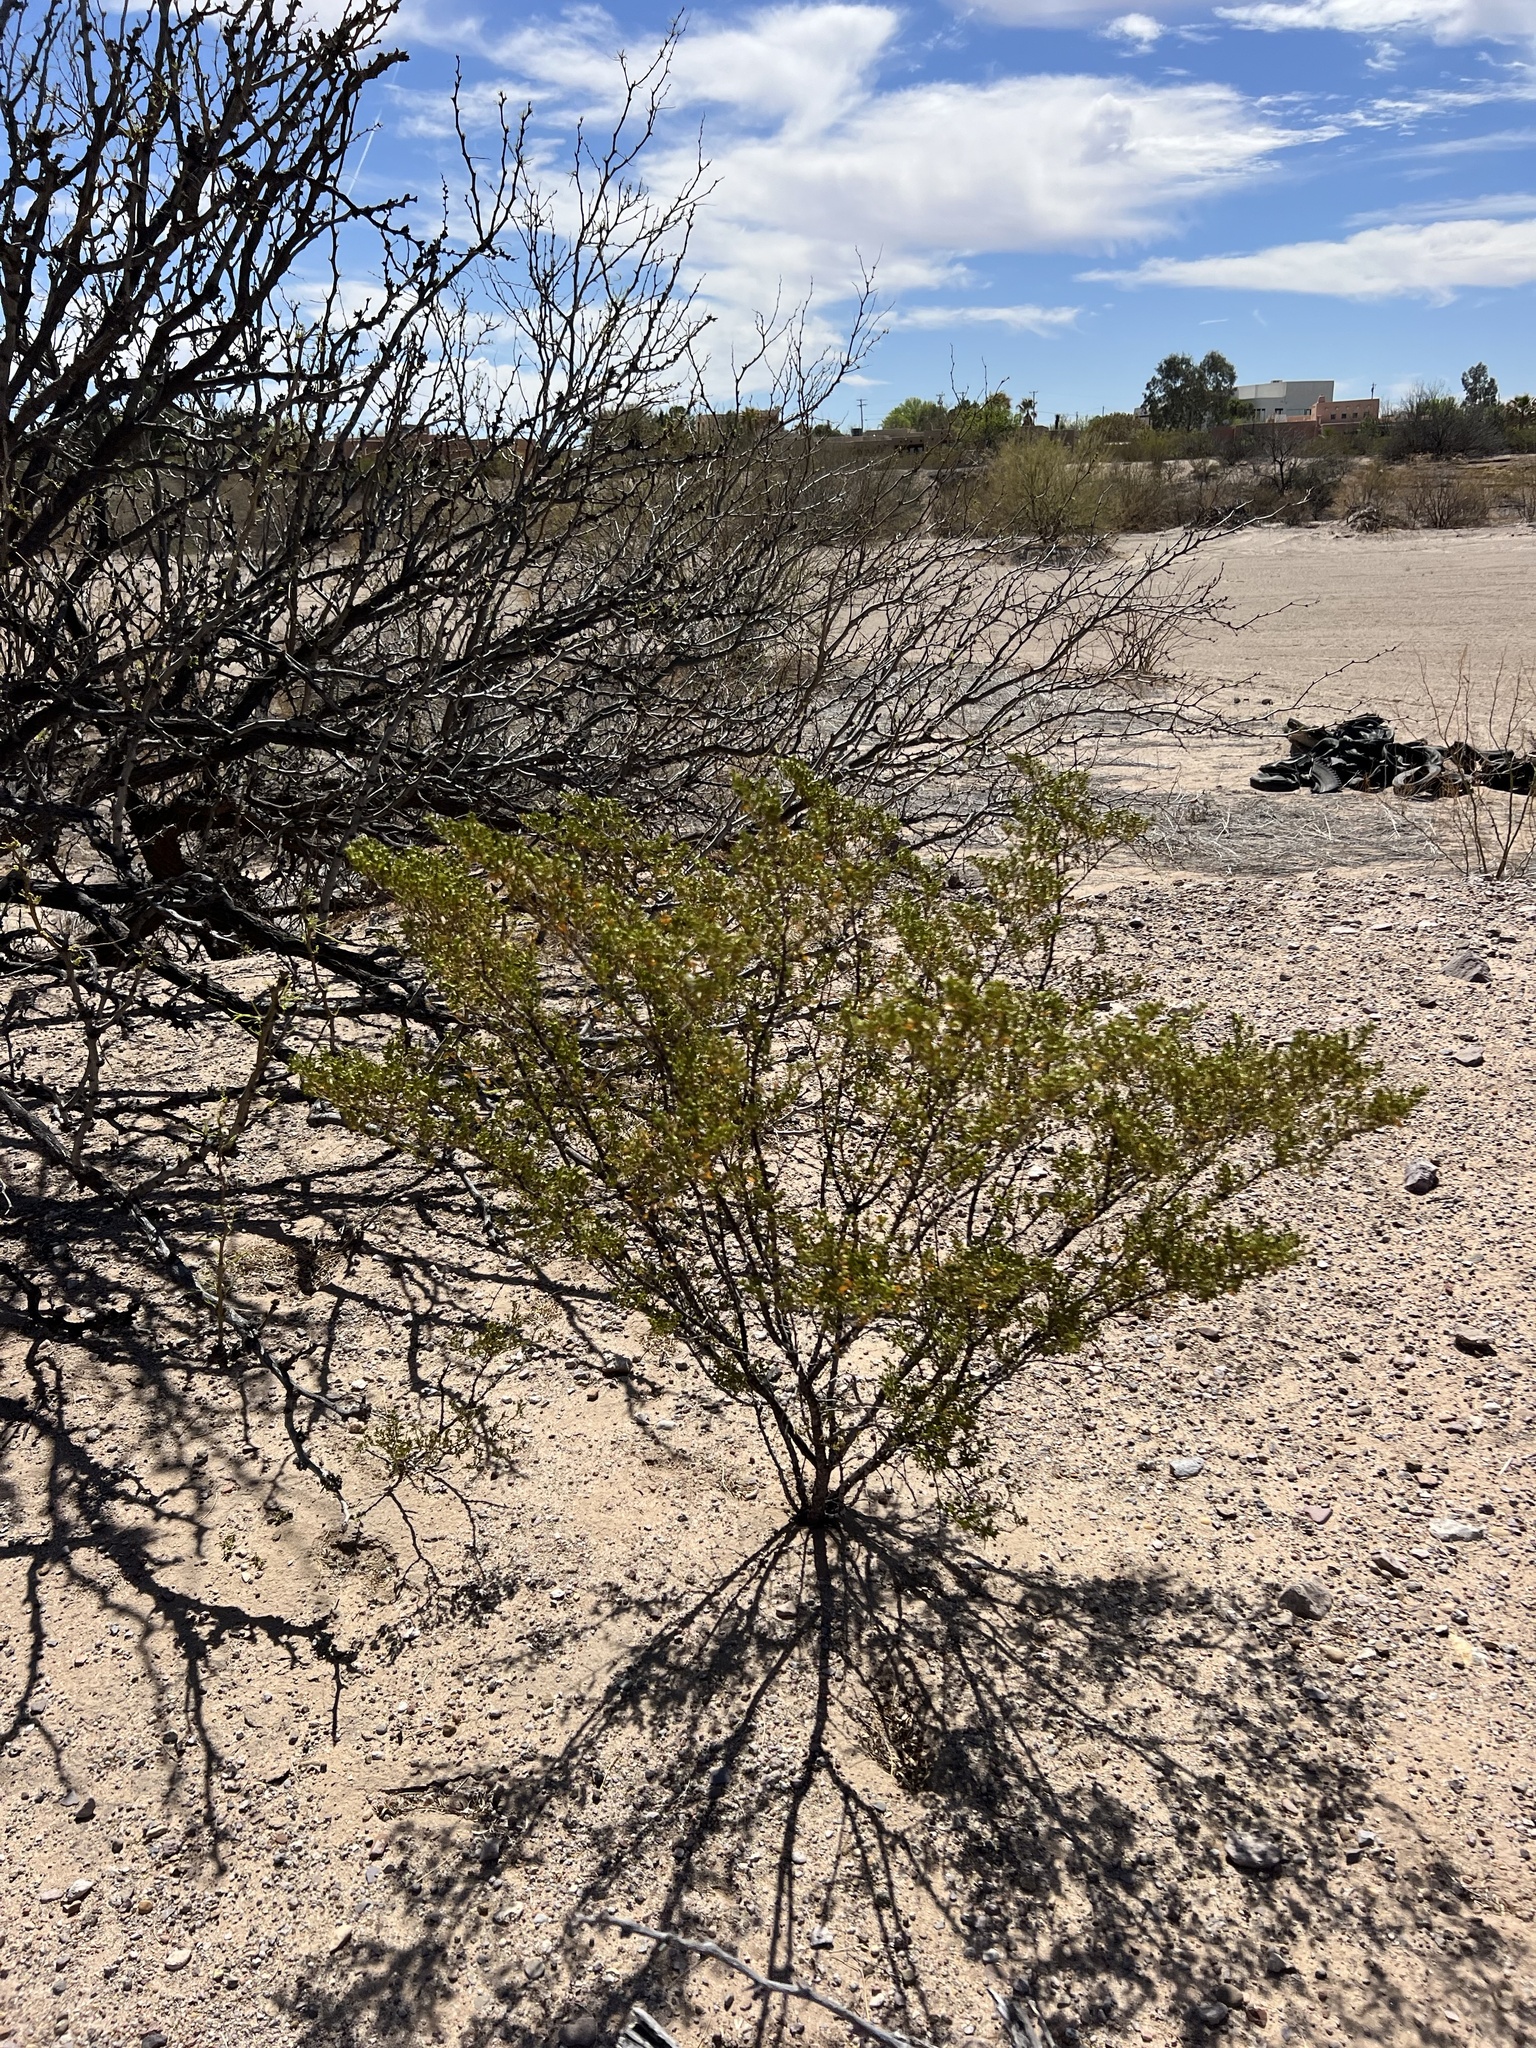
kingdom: Plantae
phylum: Tracheophyta
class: Magnoliopsida
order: Zygophyllales
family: Zygophyllaceae
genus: Larrea
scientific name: Larrea tridentata
